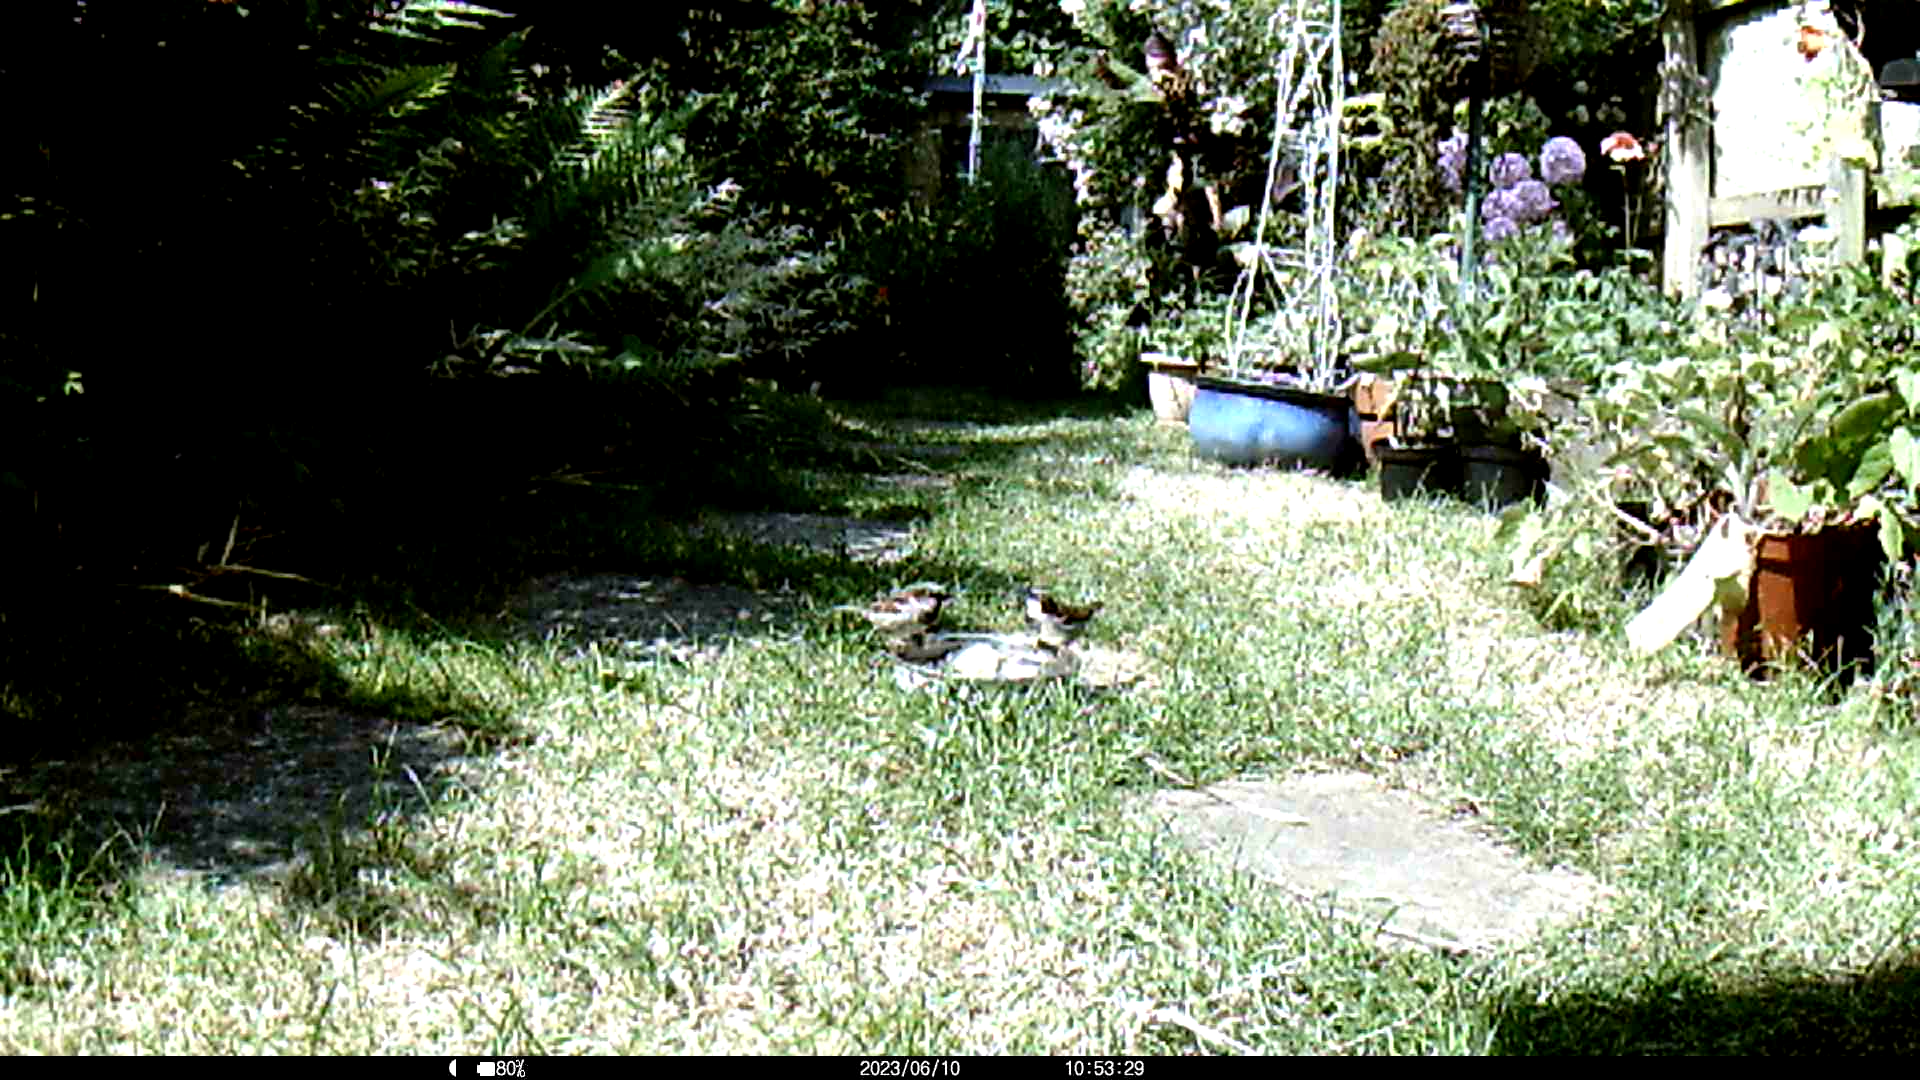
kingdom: Animalia
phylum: Chordata
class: Aves
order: Passeriformes
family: Passeridae
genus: Passer
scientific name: Passer domesticus
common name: House sparrow
